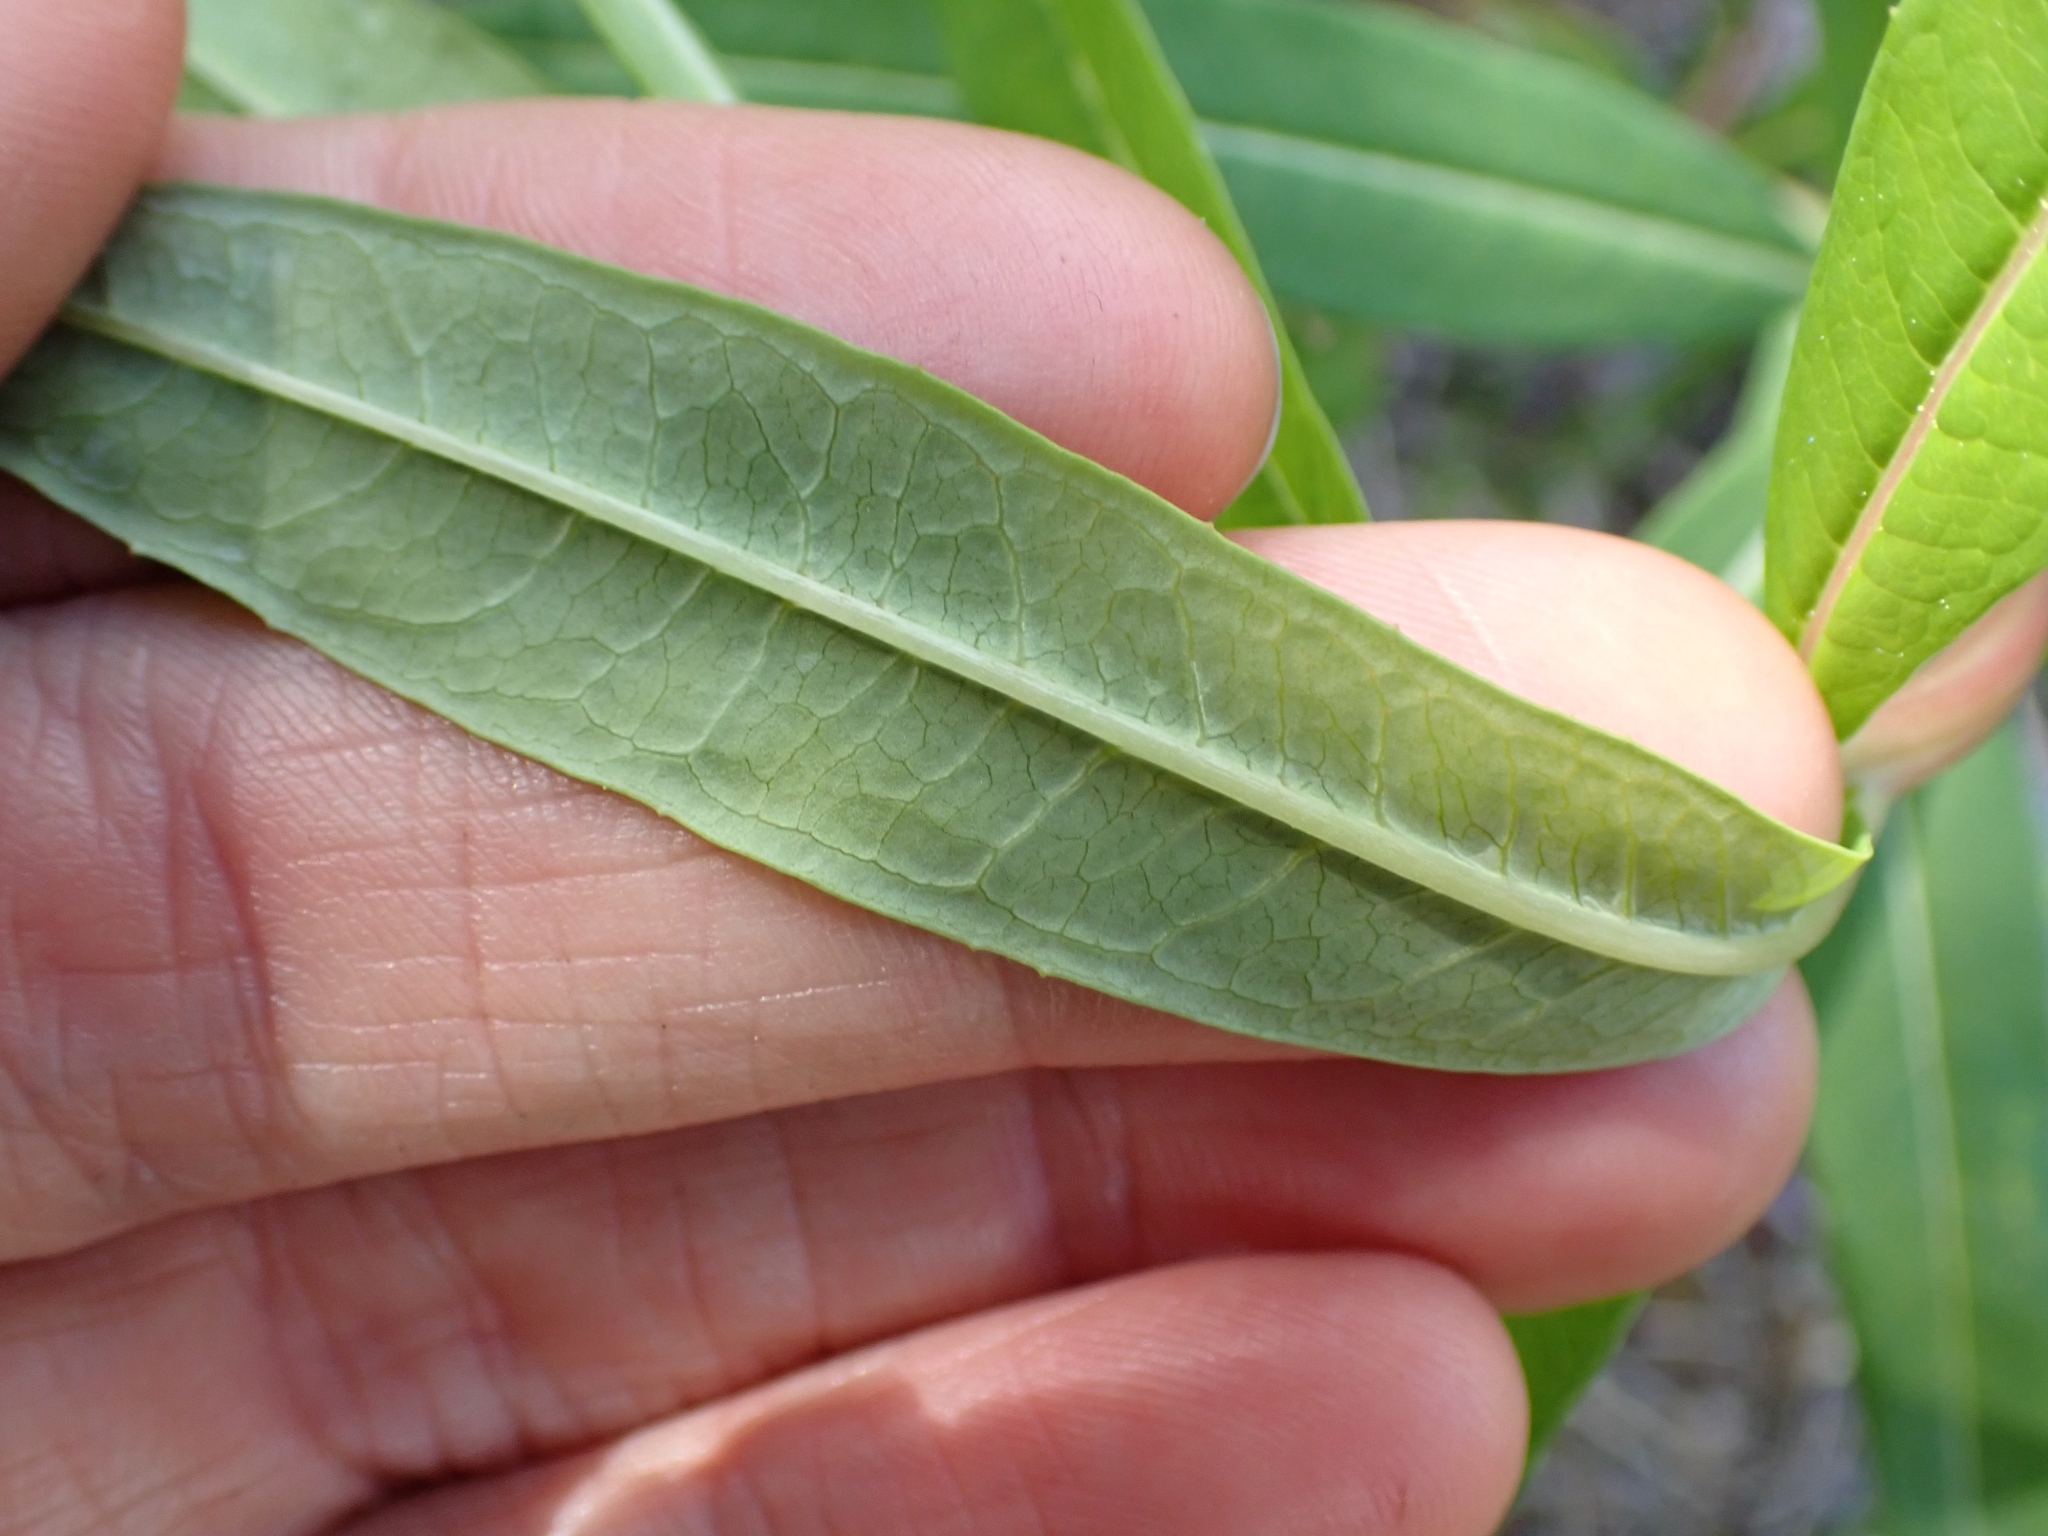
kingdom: Plantae
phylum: Tracheophyta
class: Magnoliopsida
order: Myrtales
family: Onagraceae
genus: Chamaenerion
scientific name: Chamaenerion angustifolium
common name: Fireweed
